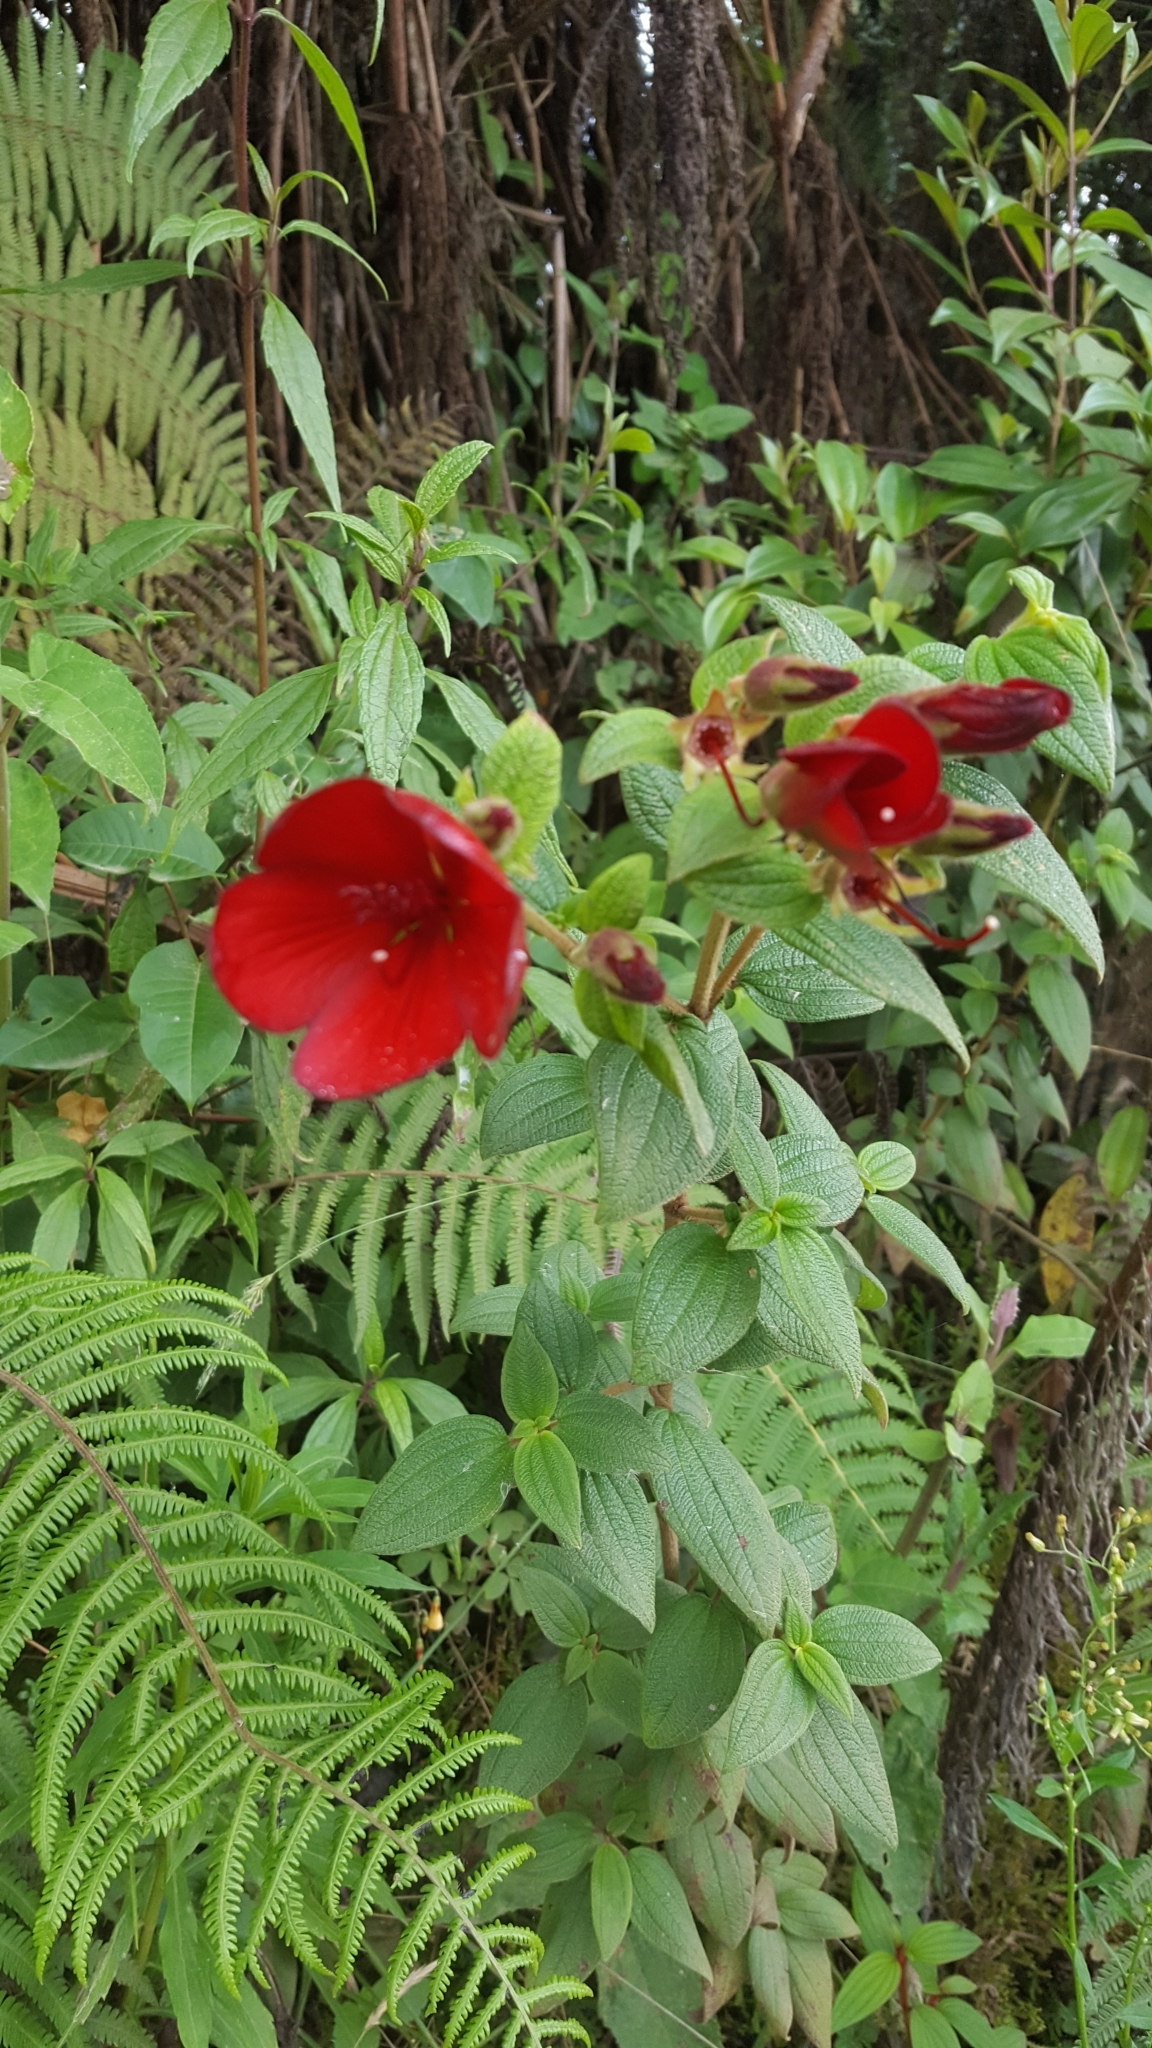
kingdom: Plantae
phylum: Tracheophyta
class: Magnoliopsida
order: Myrtales
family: Melastomataceae
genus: Chaetogastra
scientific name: Chaetogastra grossa
